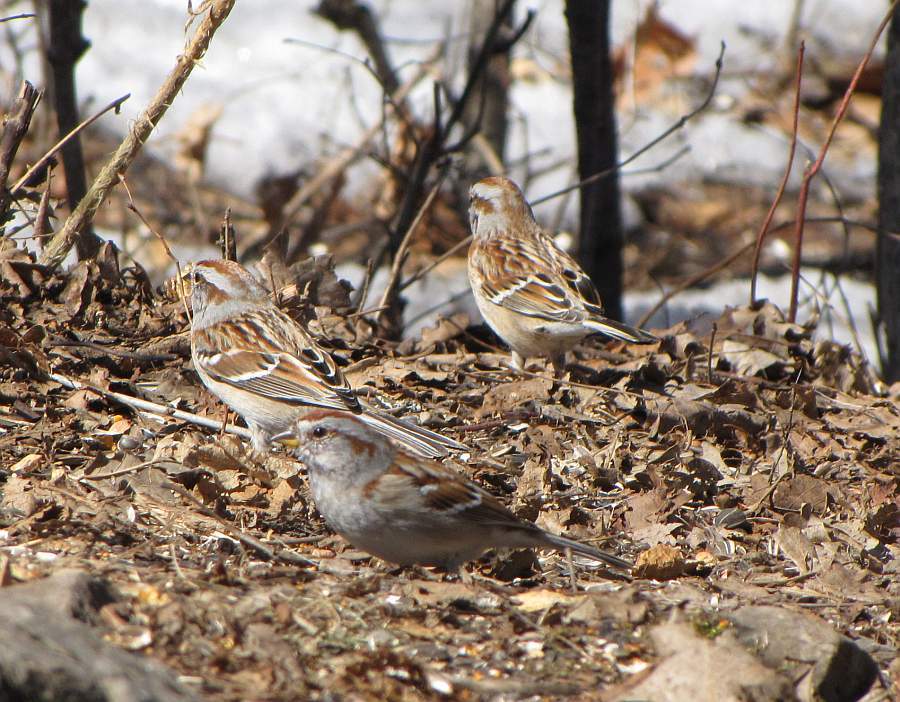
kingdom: Animalia
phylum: Chordata
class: Aves
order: Passeriformes
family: Passerellidae
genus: Spizelloides
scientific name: Spizelloides arborea
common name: American tree sparrow
